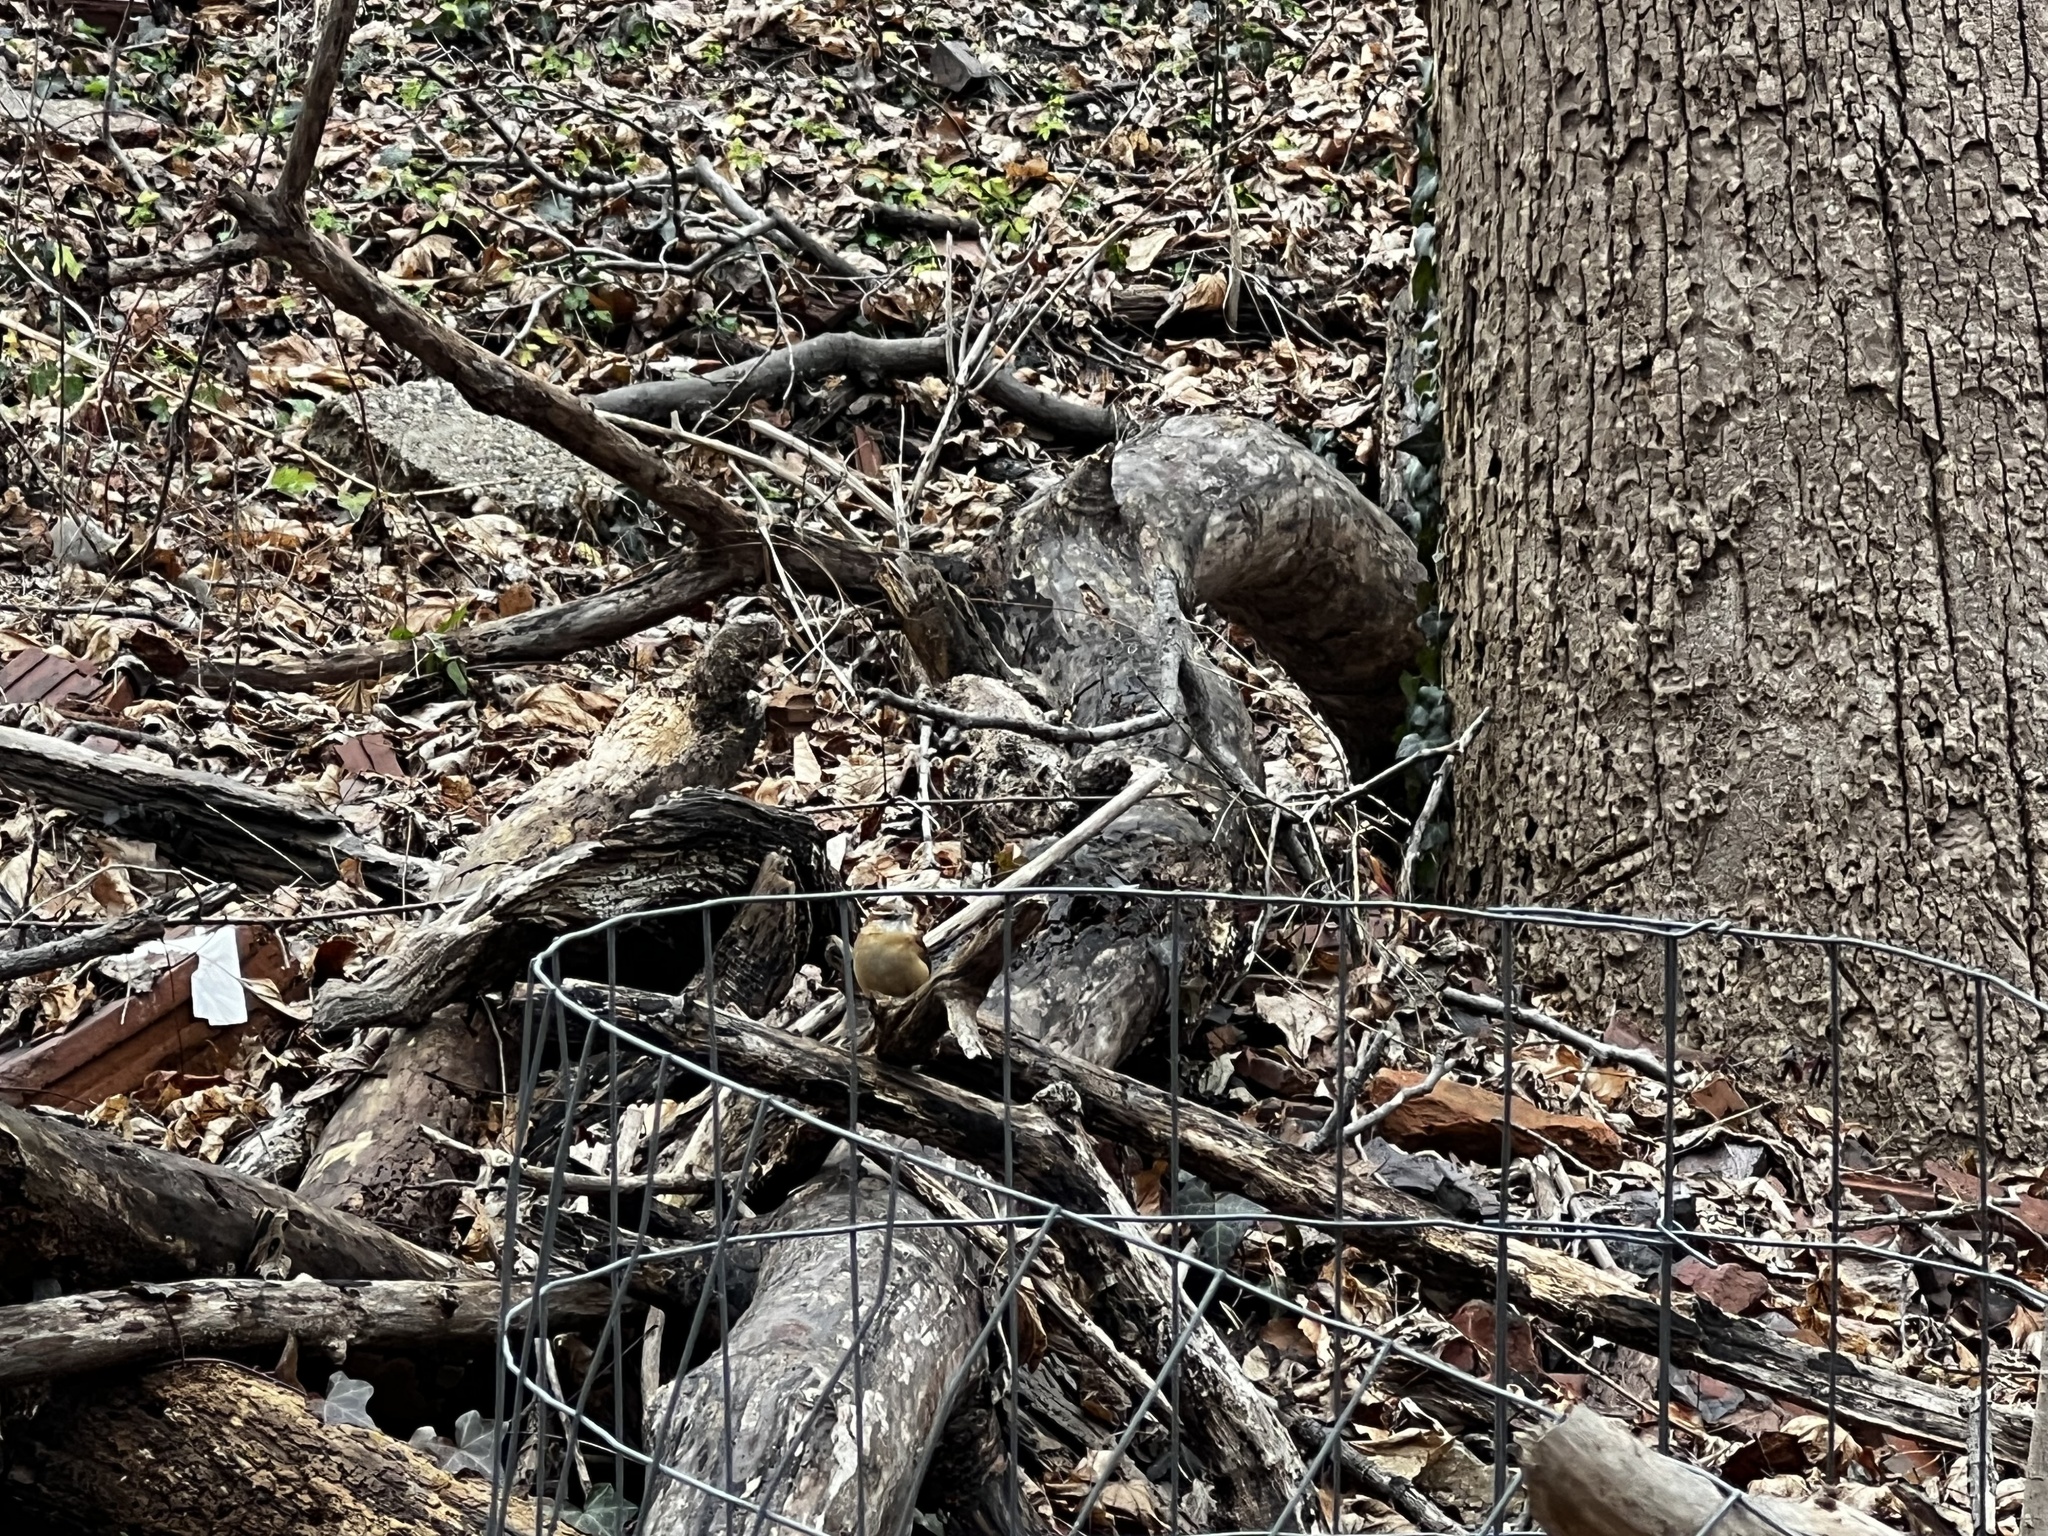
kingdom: Animalia
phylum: Chordata
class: Aves
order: Passeriformes
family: Troglodytidae
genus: Thryothorus
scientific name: Thryothorus ludovicianus
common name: Carolina wren
